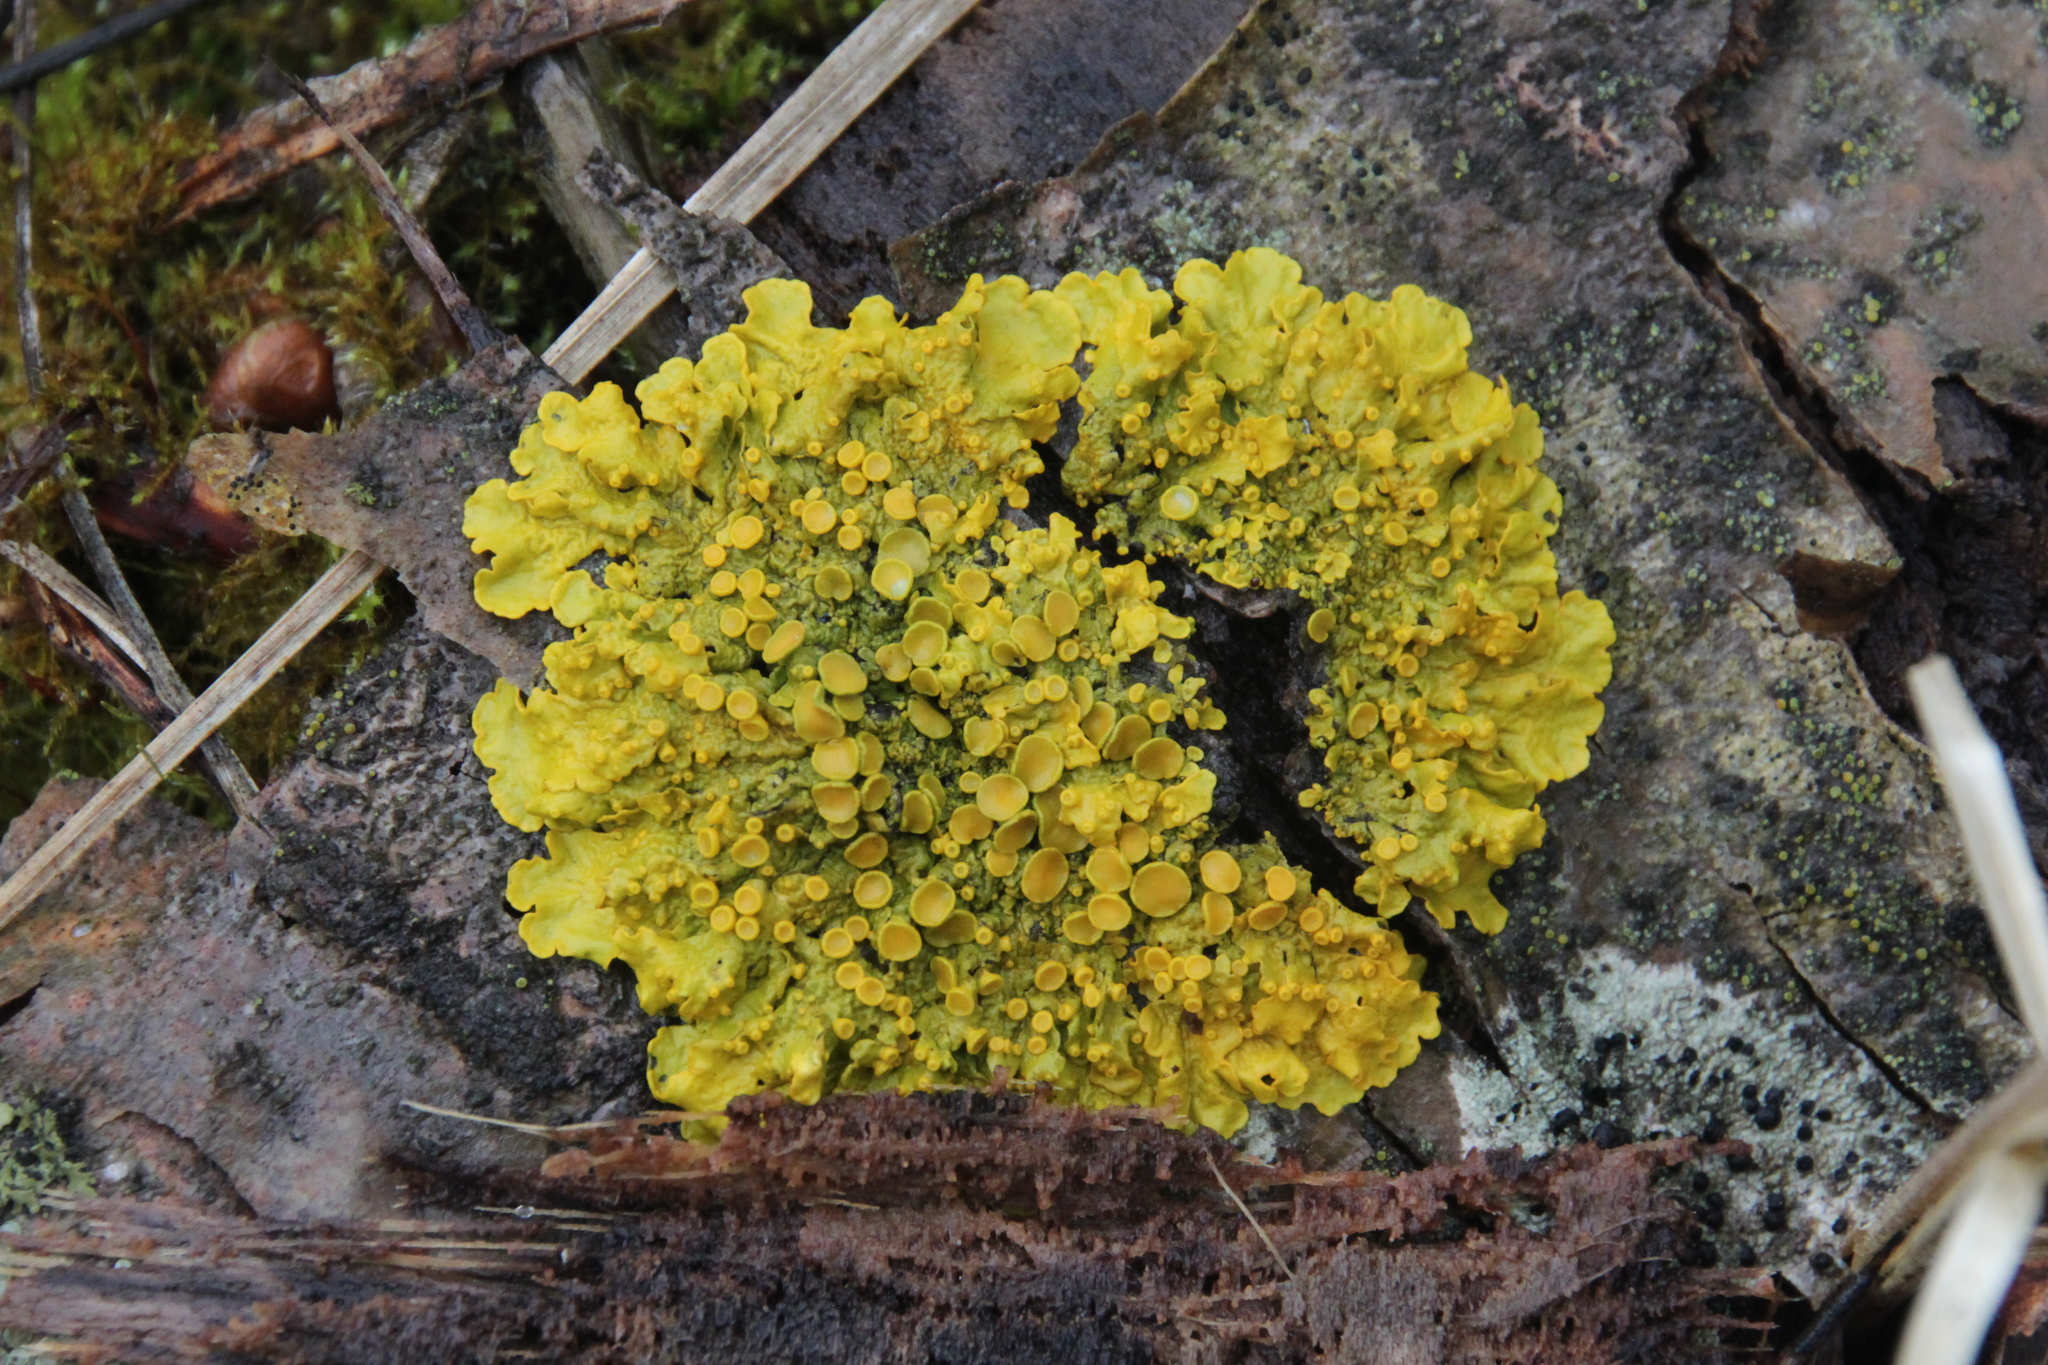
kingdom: Fungi
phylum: Ascomycota
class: Lecanoromycetes
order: Teloschistales
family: Teloschistaceae
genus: Xanthoria
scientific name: Xanthoria parietina
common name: Common orange lichen
